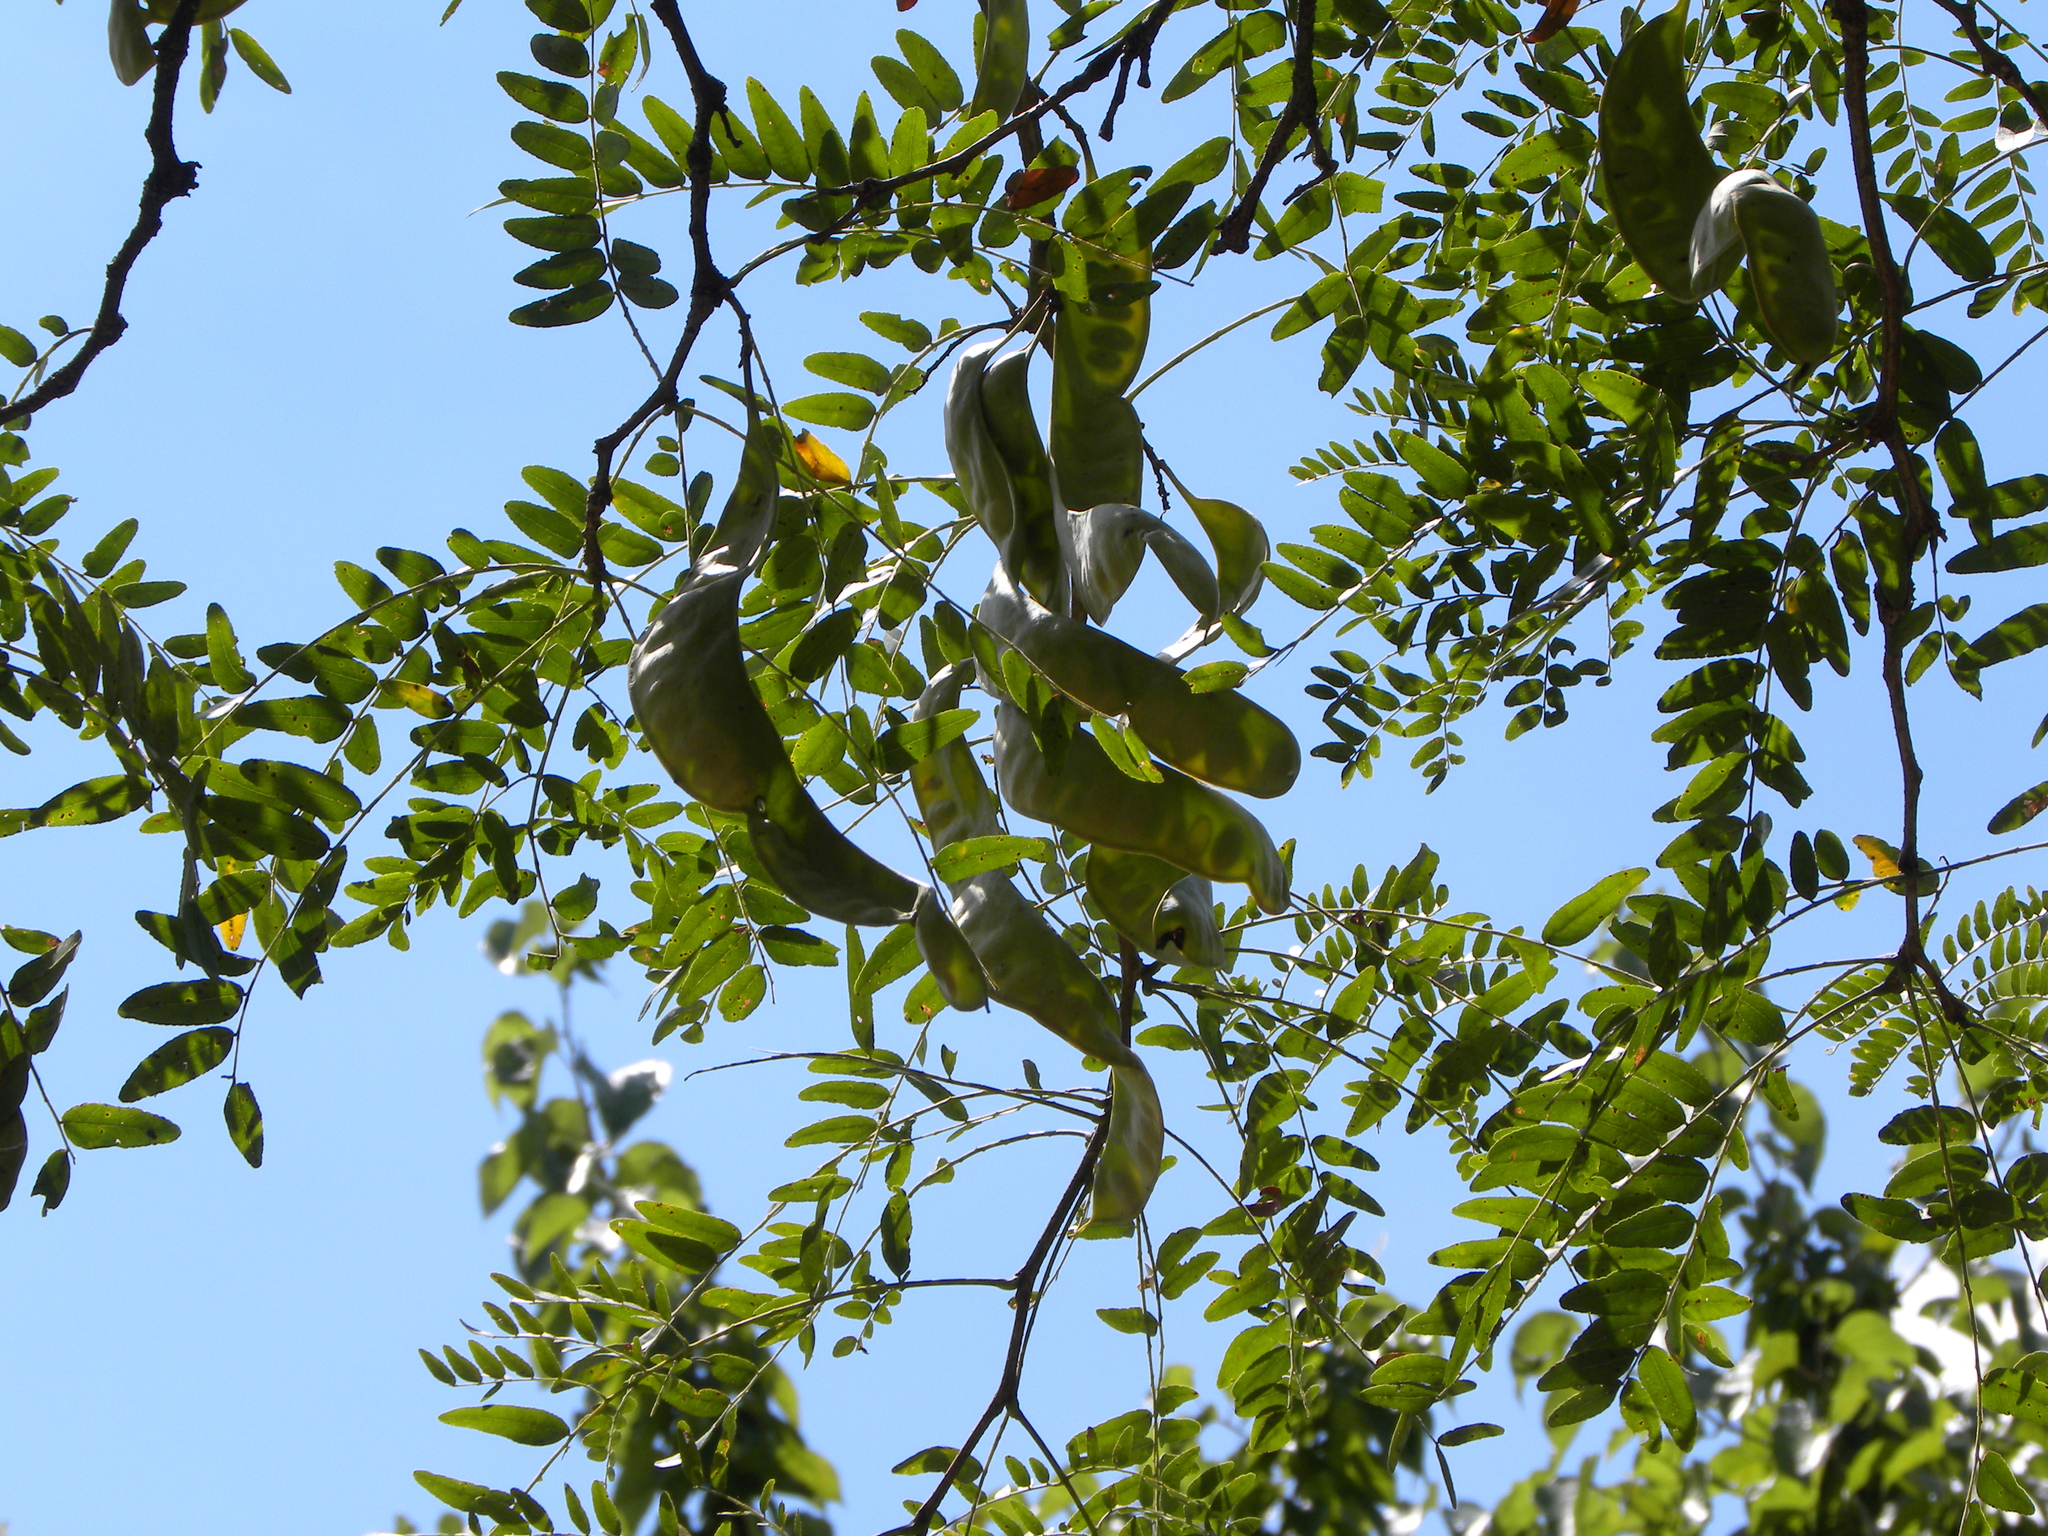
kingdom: Plantae
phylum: Tracheophyta
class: Magnoliopsida
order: Fabales
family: Fabaceae
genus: Gleditsia
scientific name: Gleditsia triacanthos
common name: Common honeylocust
